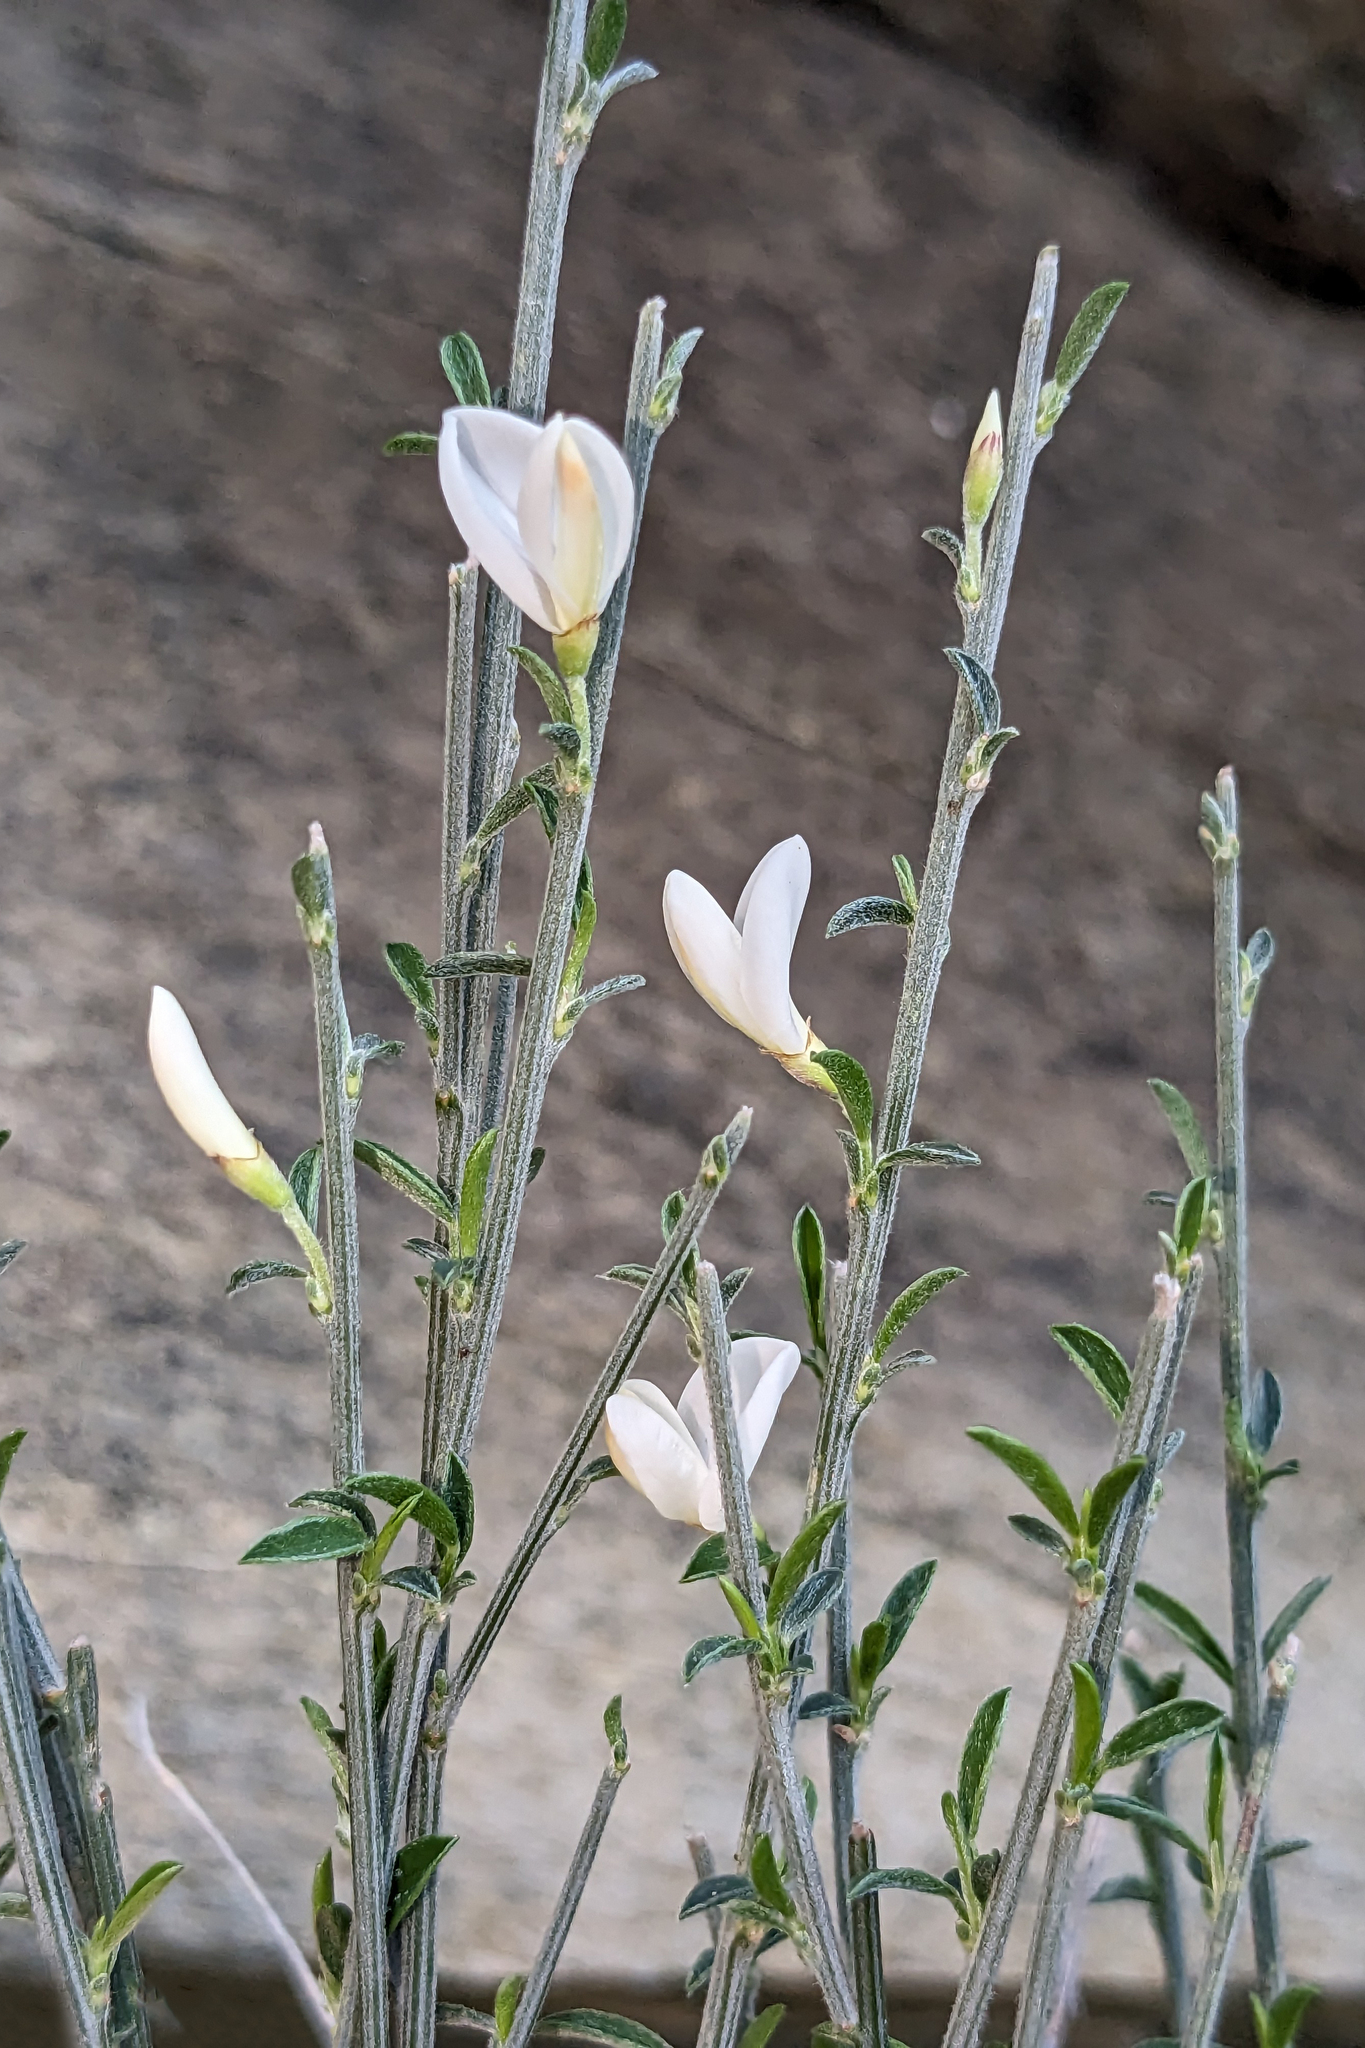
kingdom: Plantae
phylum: Tracheophyta
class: Magnoliopsida
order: Fabales
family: Fabaceae
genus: Cytisus
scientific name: Cytisus multiflorus
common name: White broom
